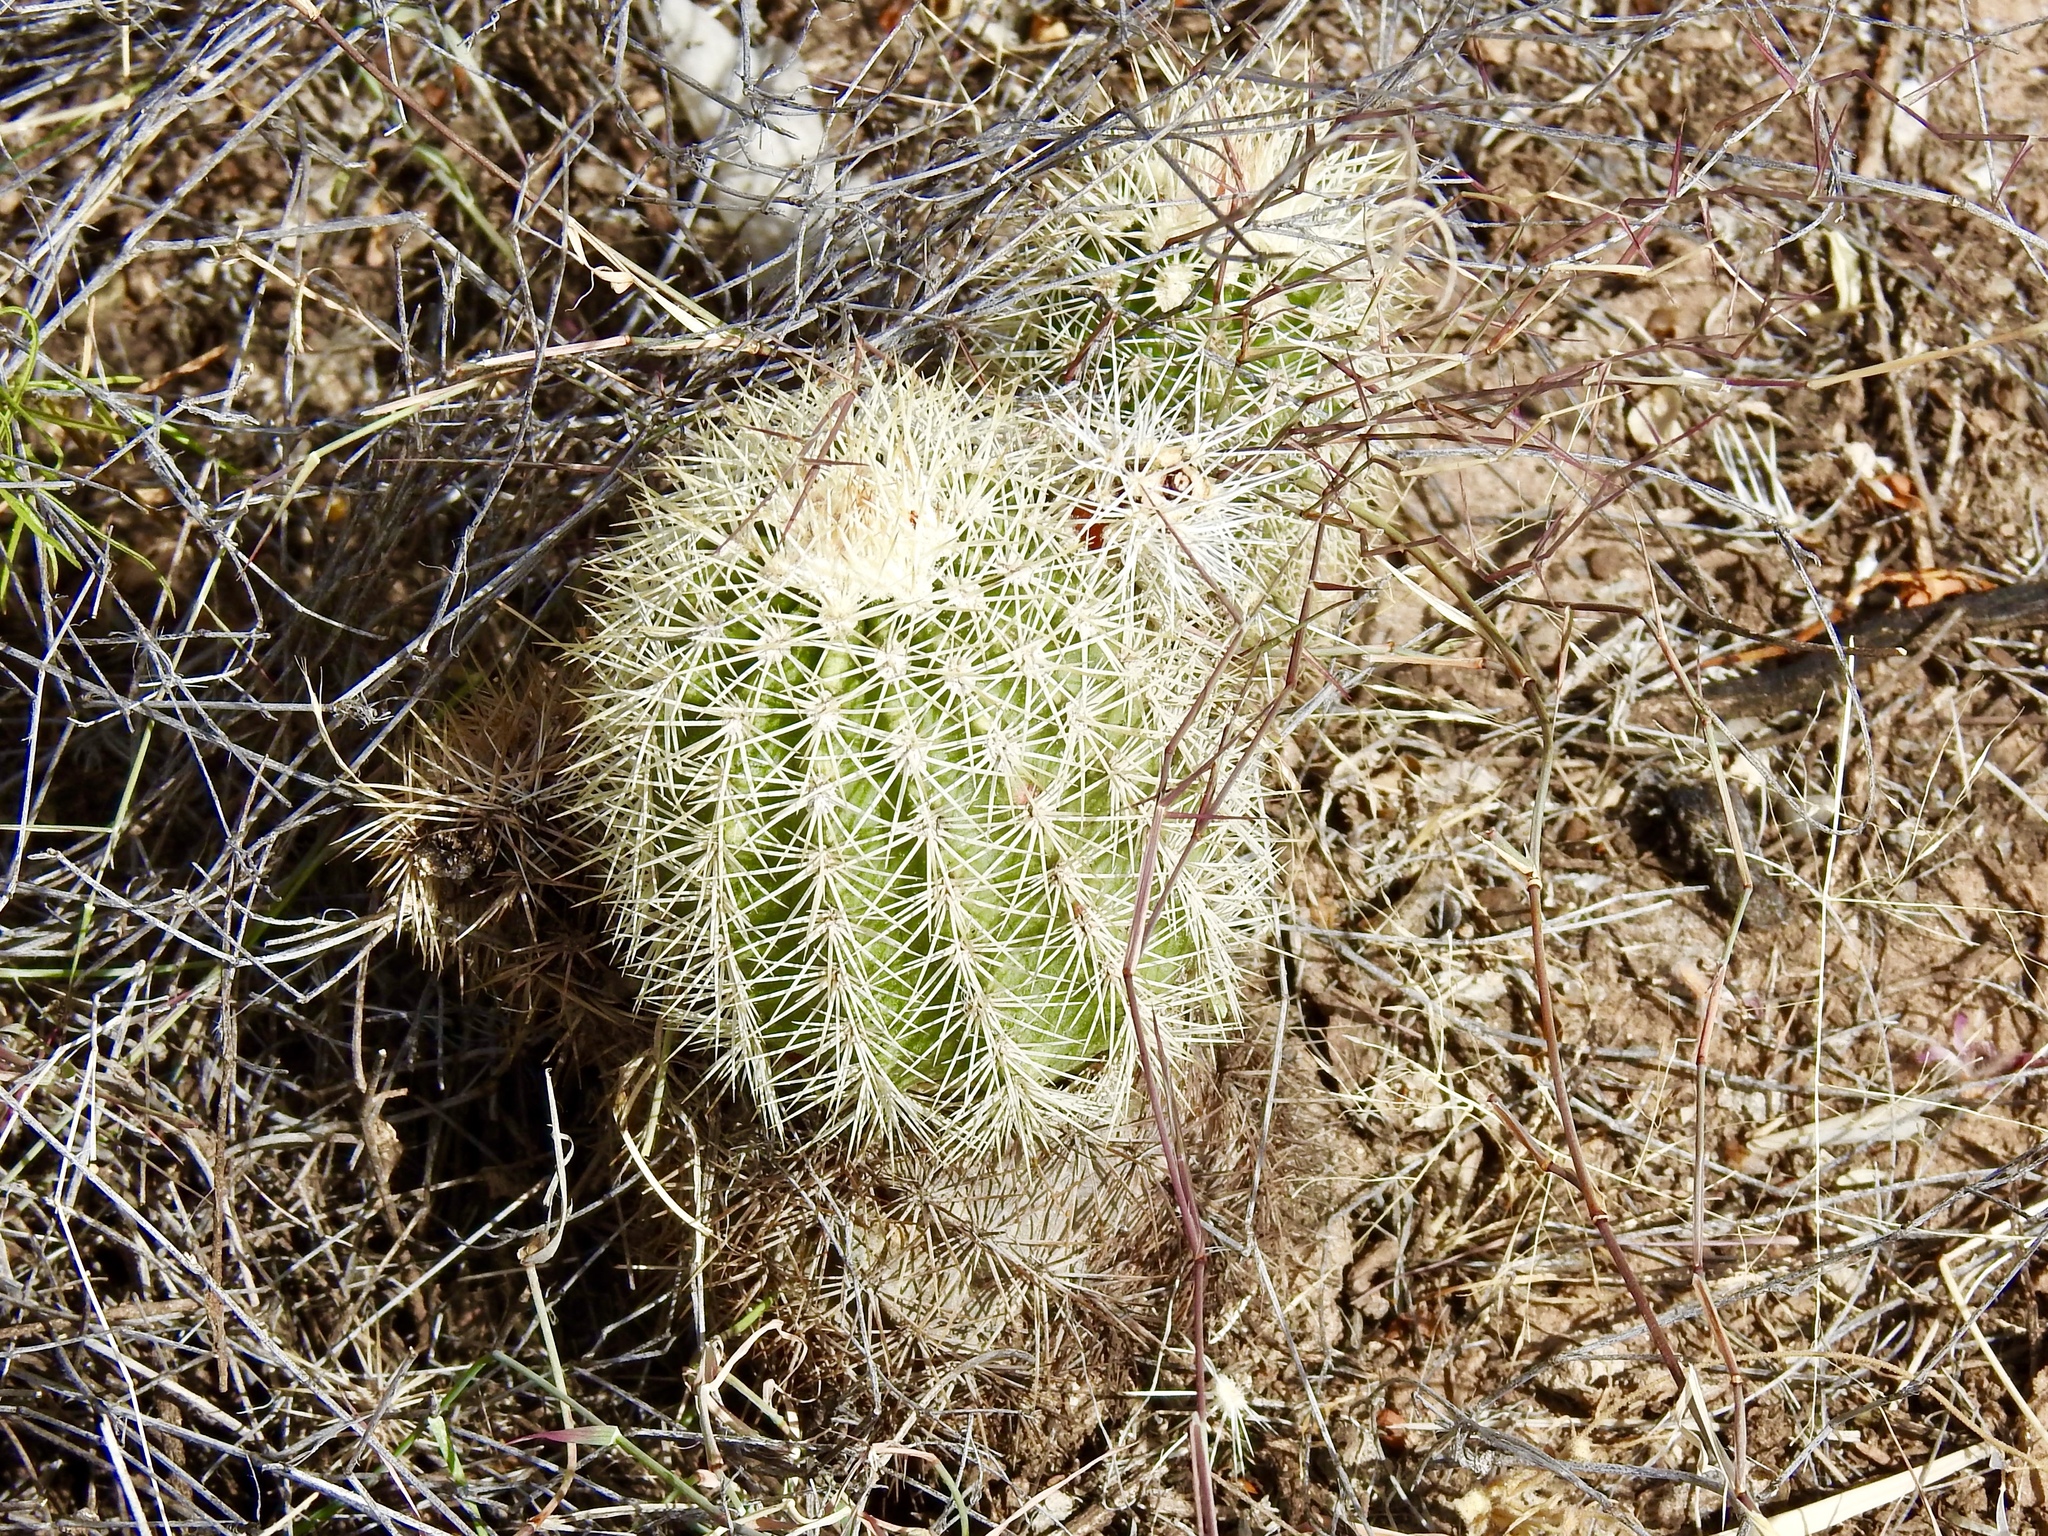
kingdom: Plantae
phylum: Tracheophyta
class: Magnoliopsida
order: Caryophyllales
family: Cactaceae
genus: Echinocereus
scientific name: Echinocereus dasyacanthus
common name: Spiny hedgehog cactus
